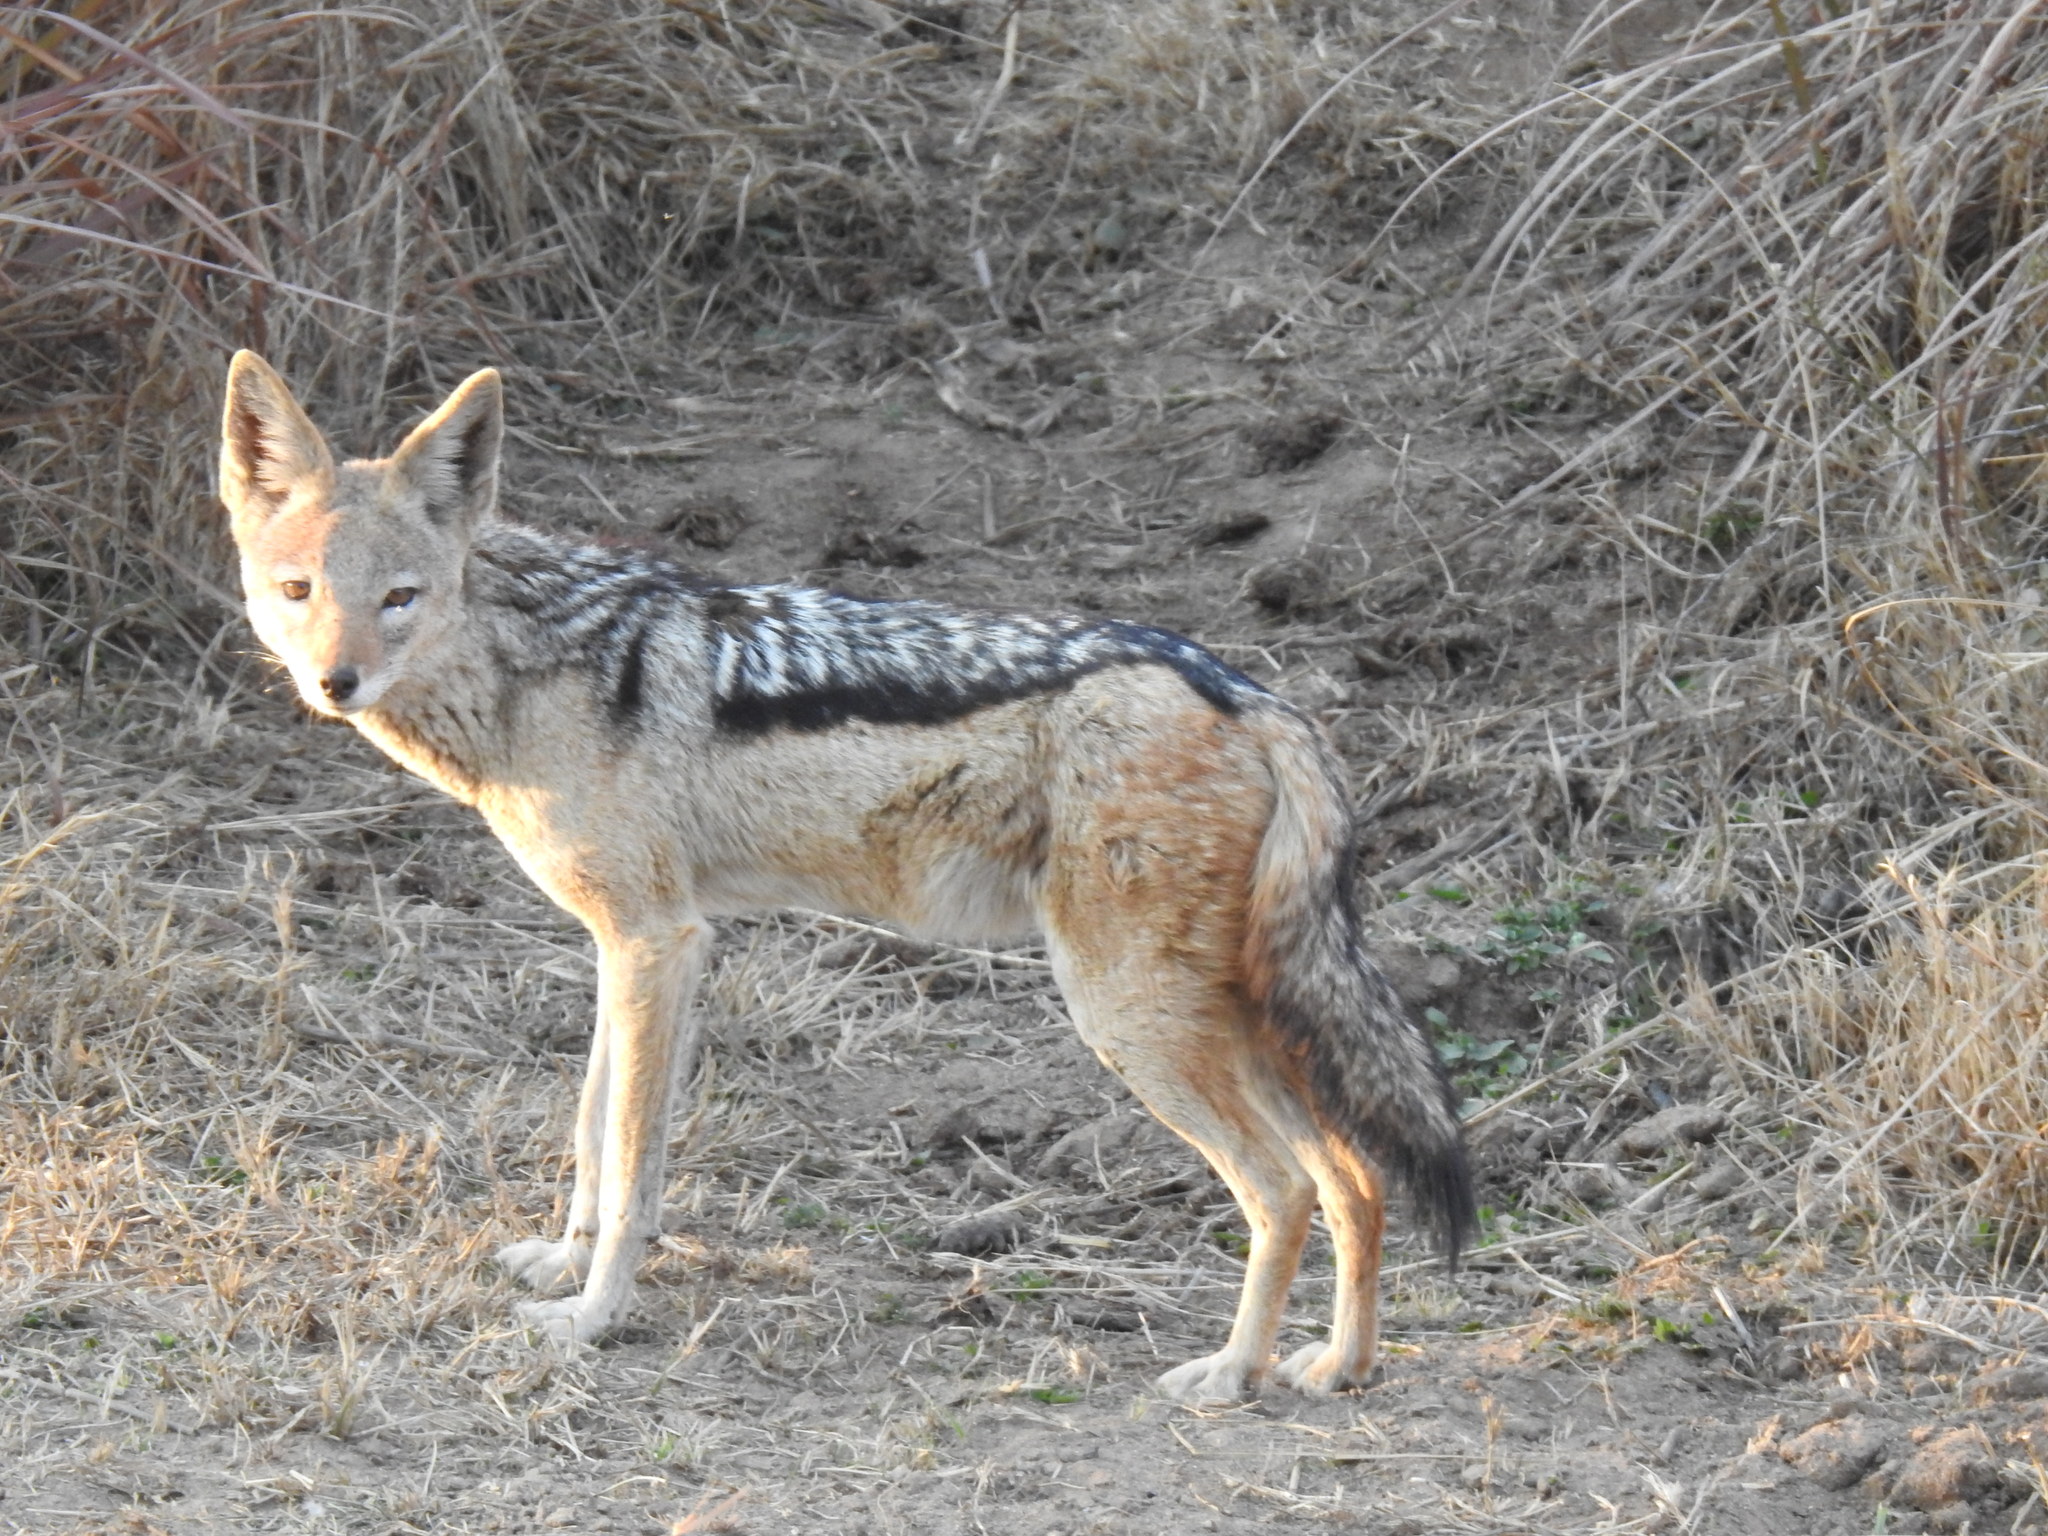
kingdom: Animalia
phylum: Chordata
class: Mammalia
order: Carnivora
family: Canidae
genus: Lupulella
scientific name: Lupulella
